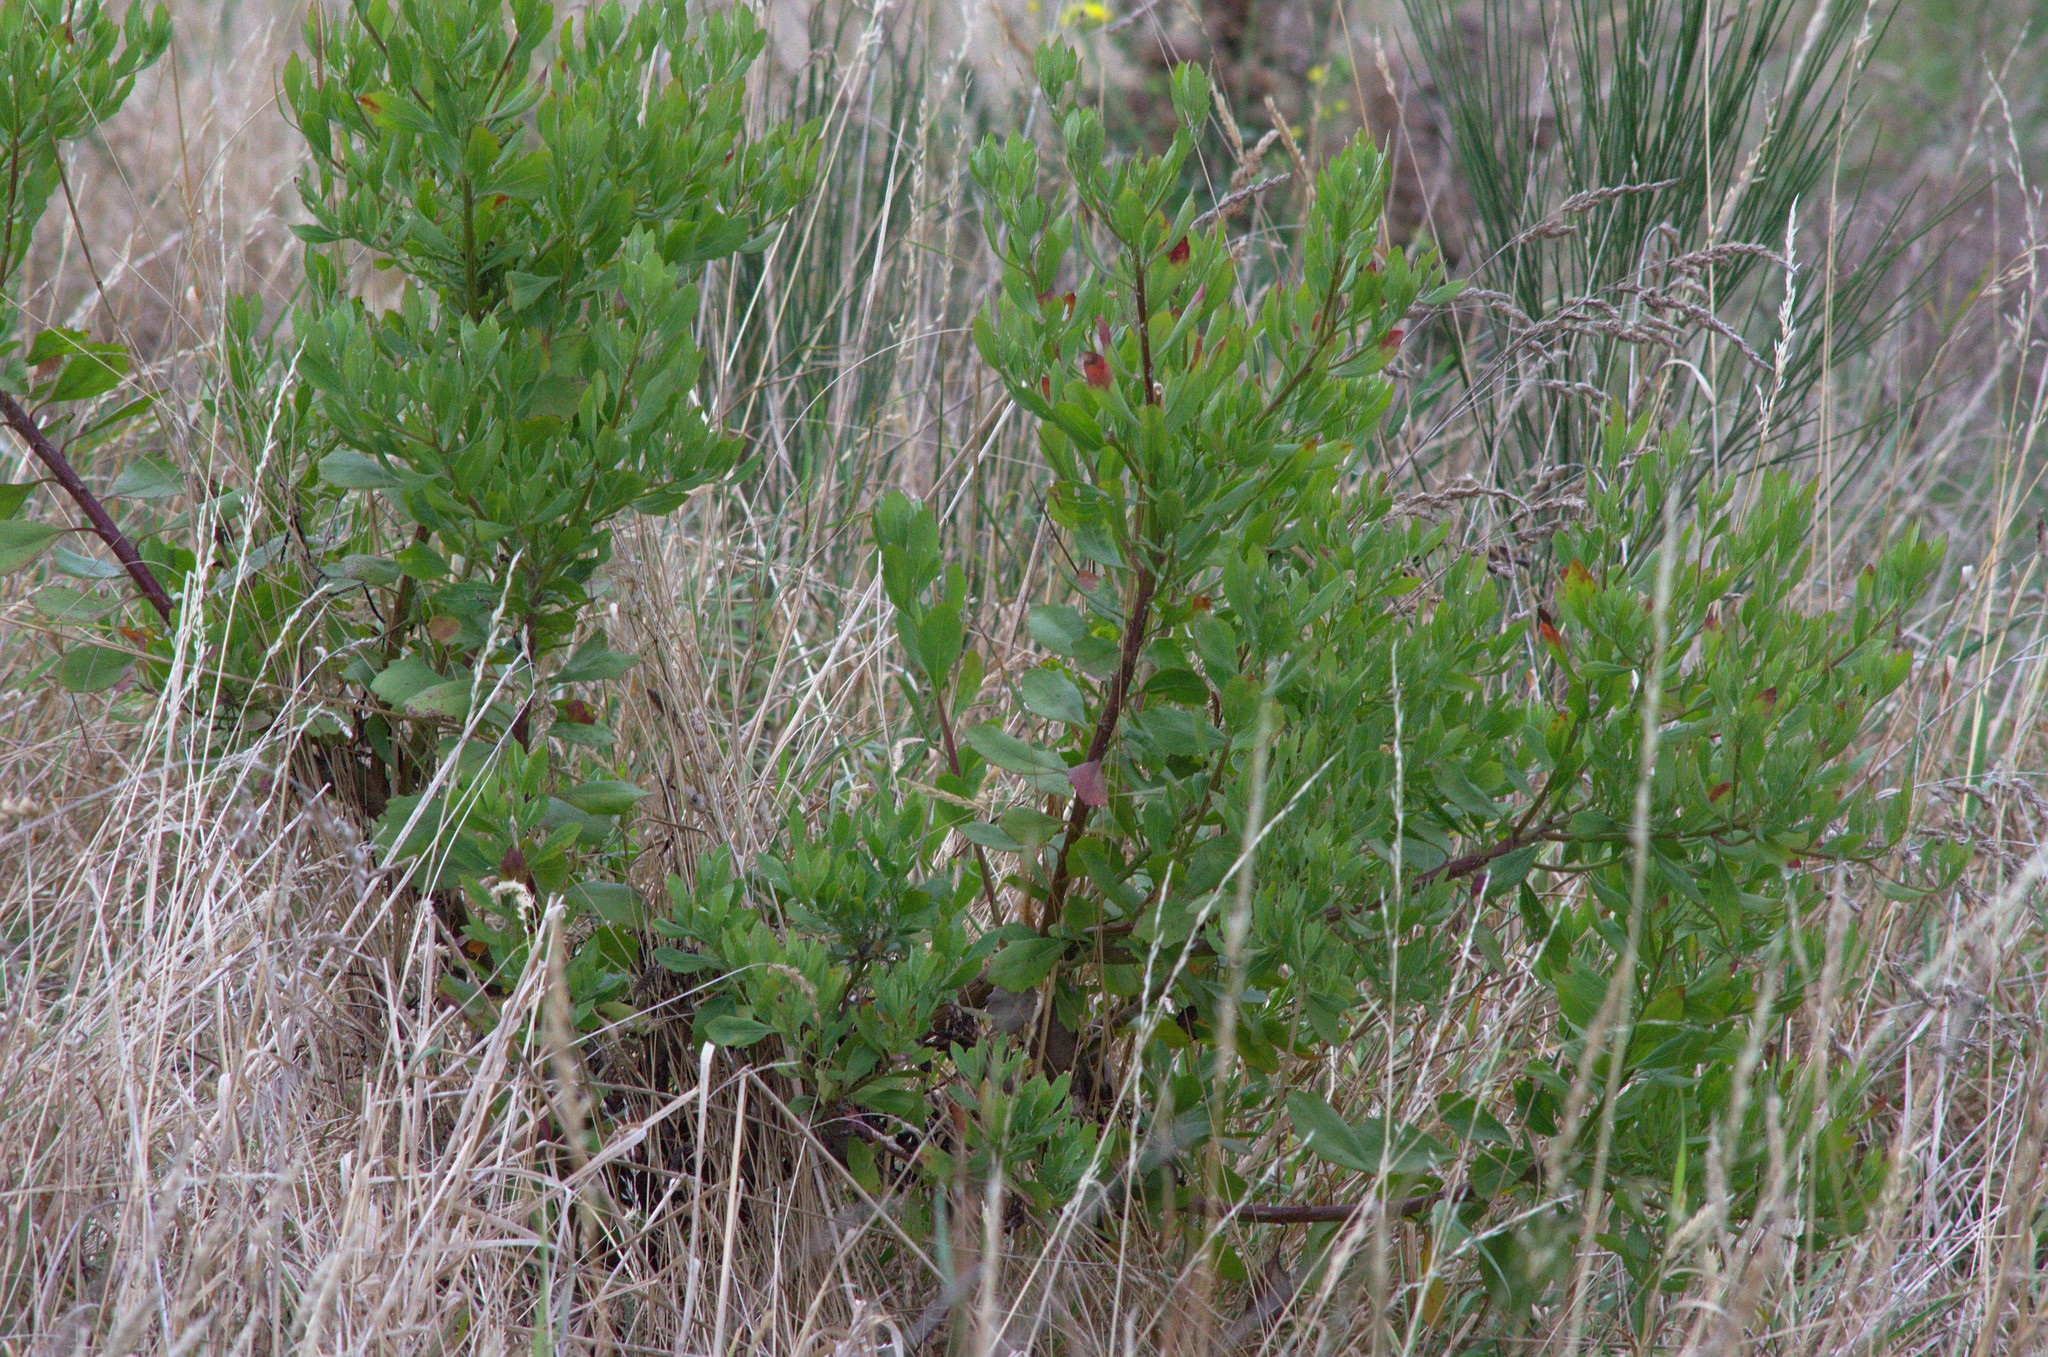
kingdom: Plantae
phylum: Tracheophyta
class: Magnoliopsida
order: Asterales
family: Asteraceae
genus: Osteospermum
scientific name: Osteospermum moniliferum
